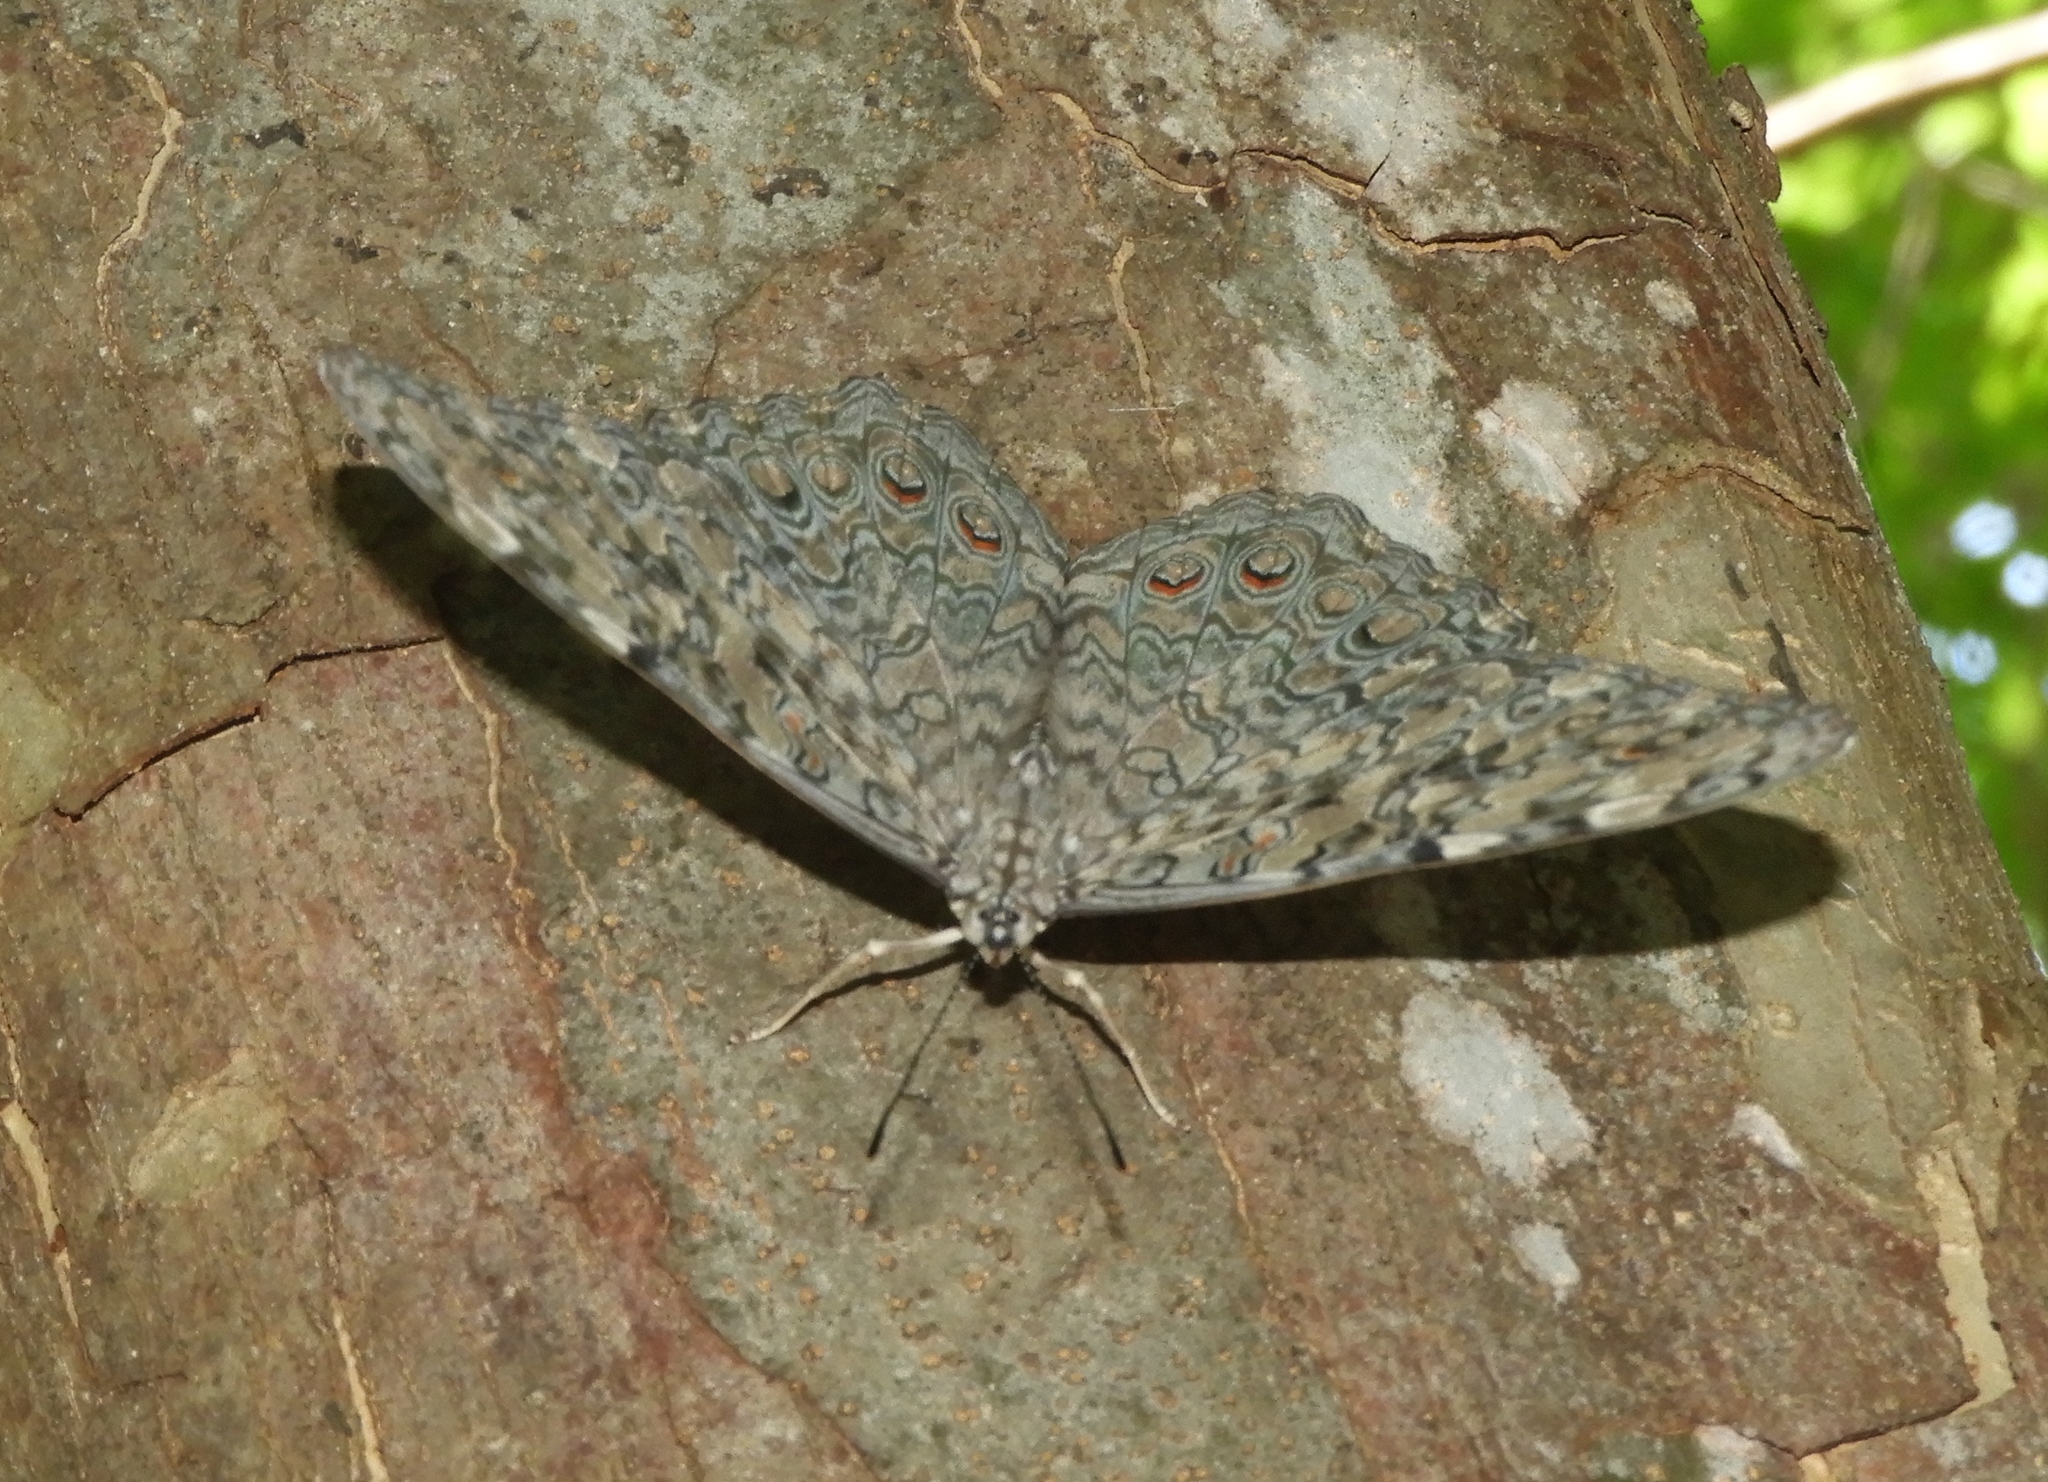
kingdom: Animalia
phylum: Arthropoda
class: Insecta
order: Lepidoptera
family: Nymphalidae
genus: Hamadryas
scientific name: Hamadryas februa
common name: Gray cracker
